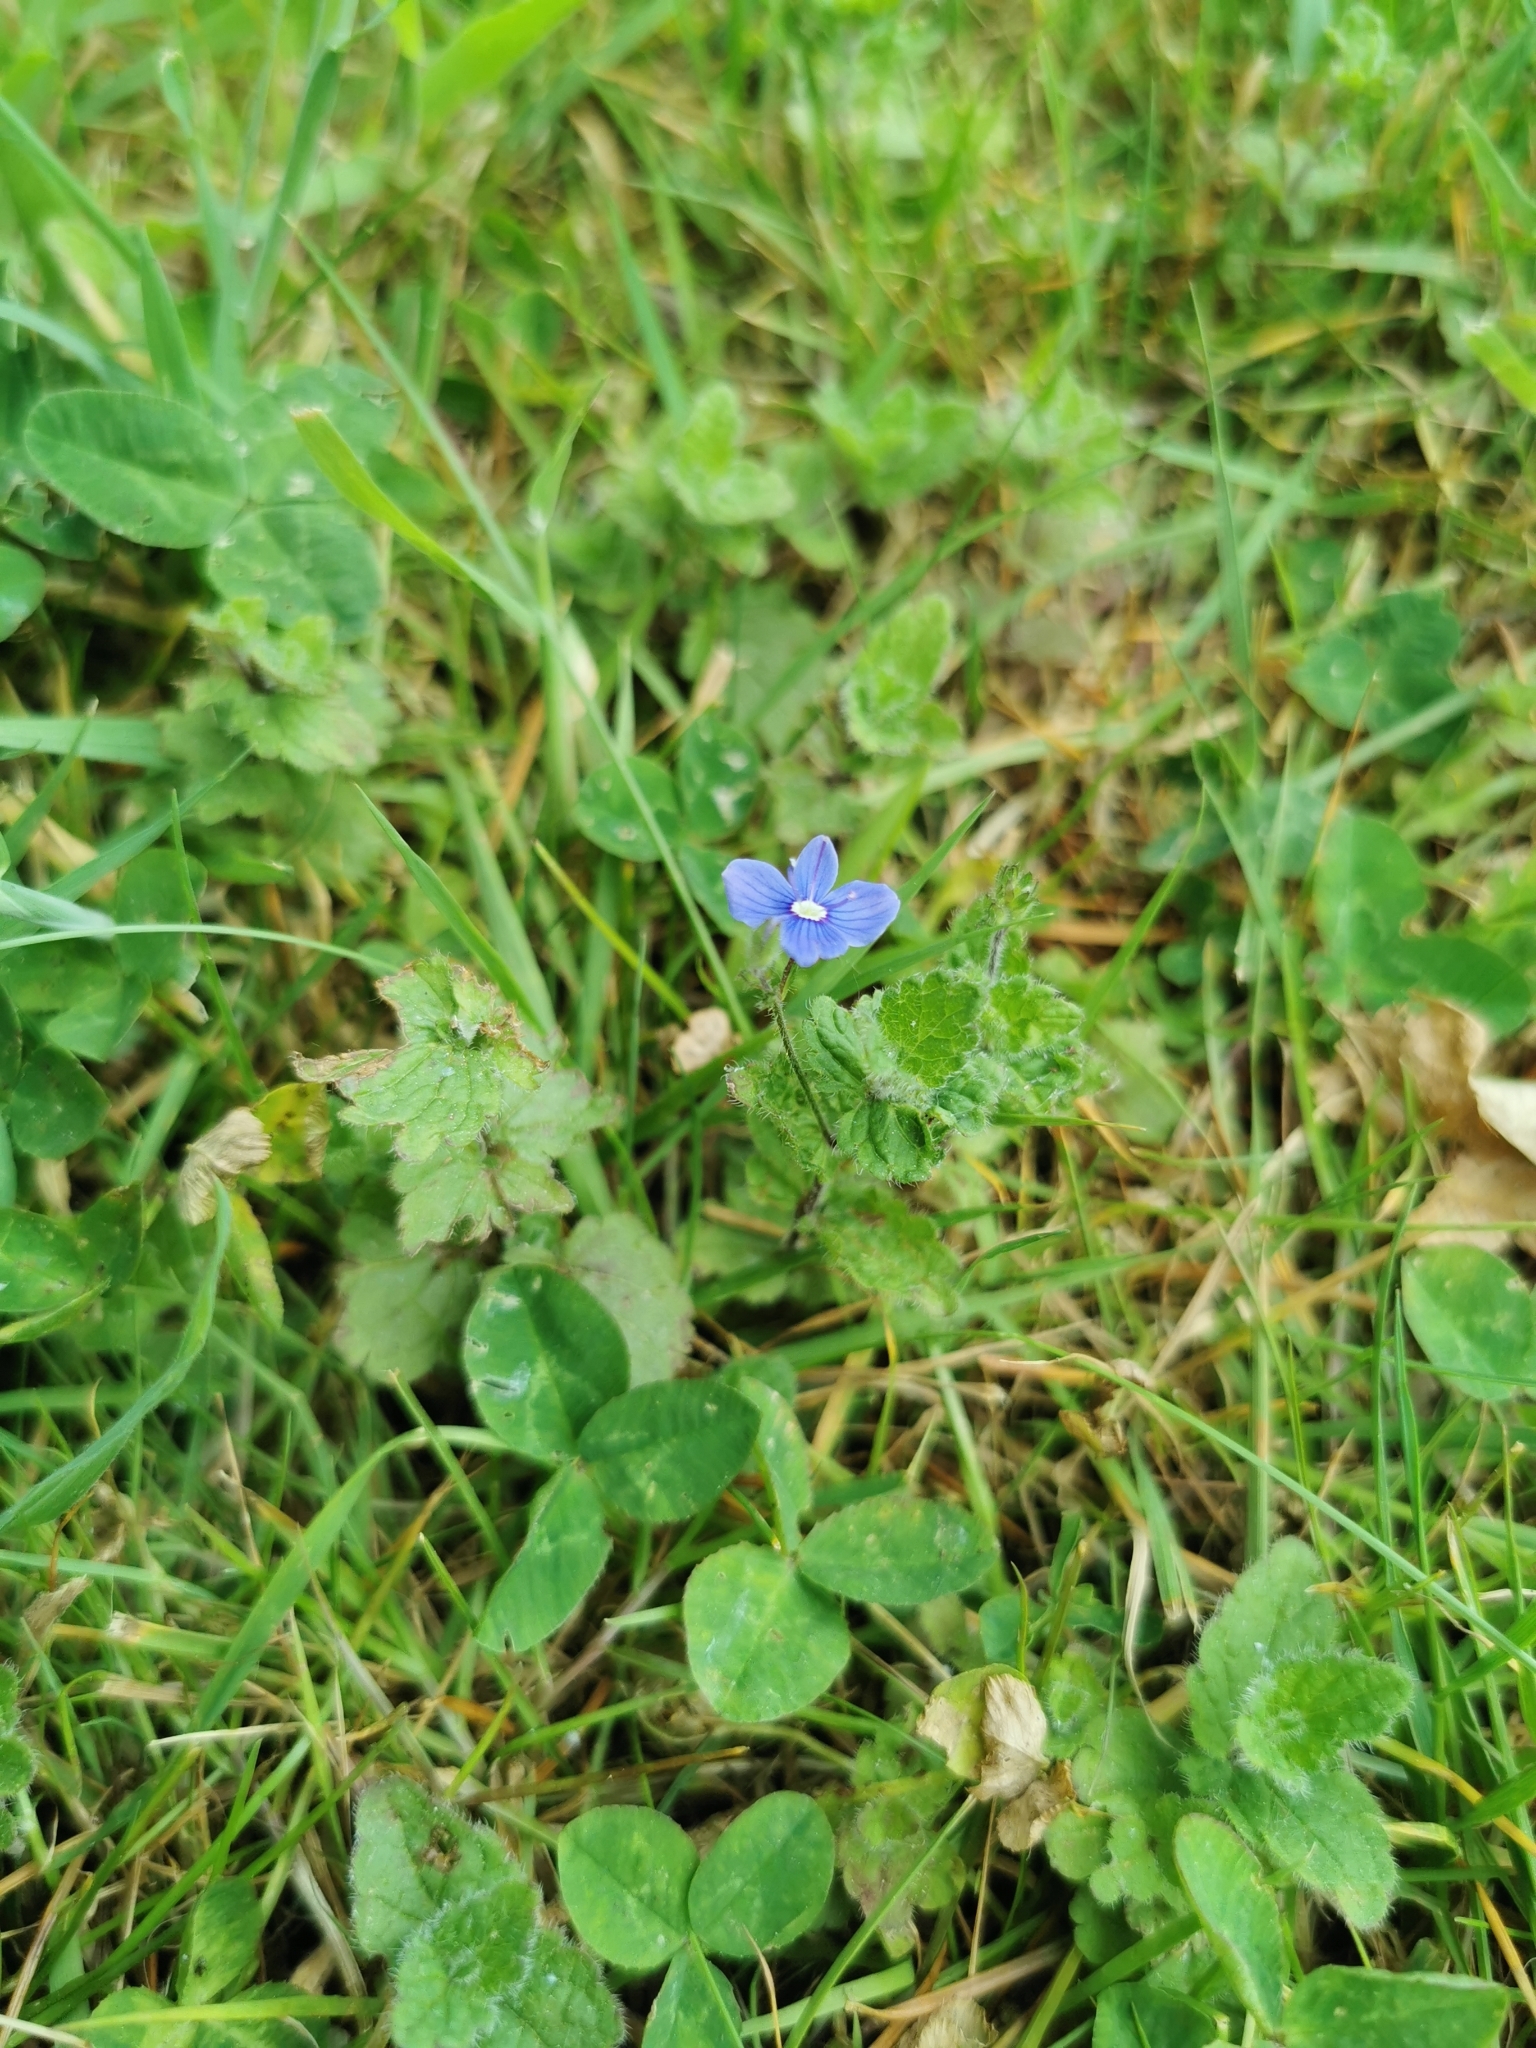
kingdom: Plantae
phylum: Tracheophyta
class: Magnoliopsida
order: Lamiales
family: Plantaginaceae
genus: Veronica
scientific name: Veronica chamaedrys
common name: Germander speedwell
